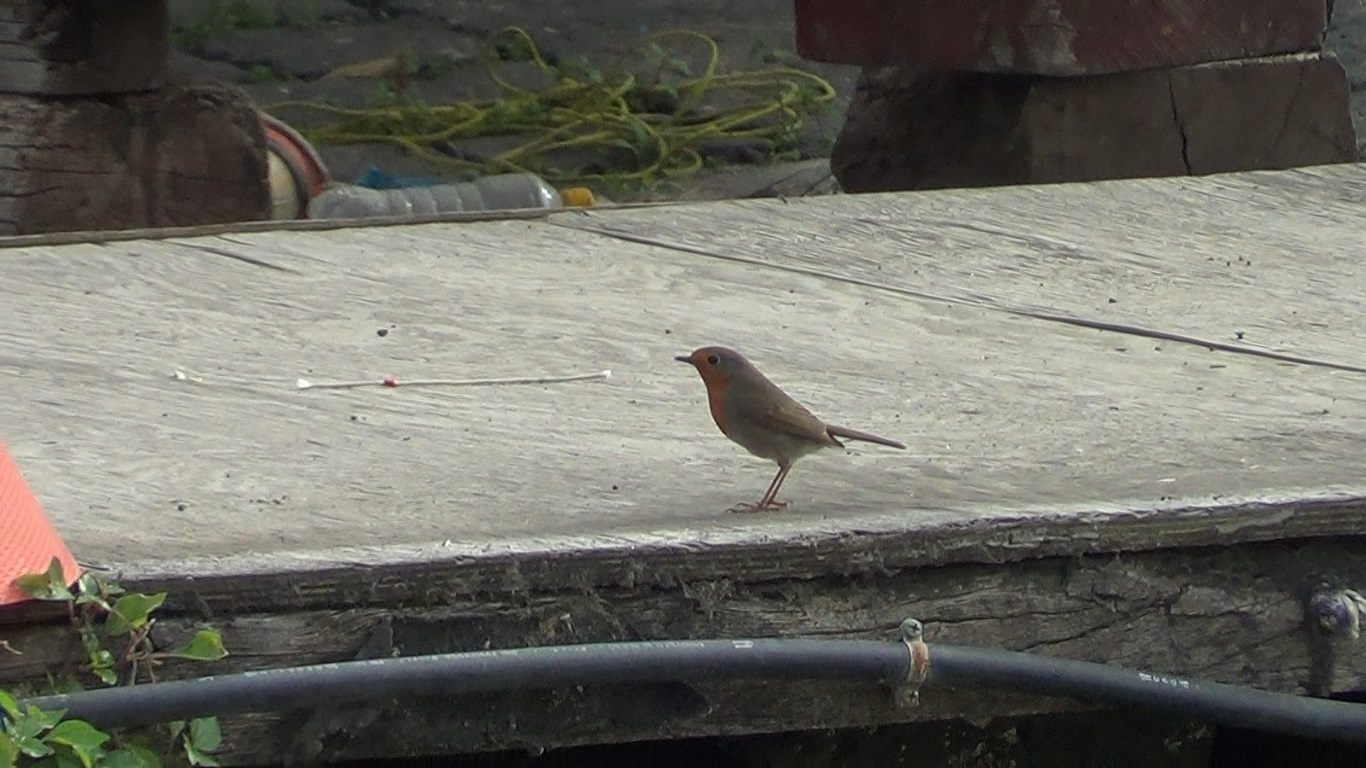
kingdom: Animalia
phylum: Chordata
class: Aves
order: Passeriformes
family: Muscicapidae
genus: Erithacus
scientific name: Erithacus rubecula
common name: European robin
